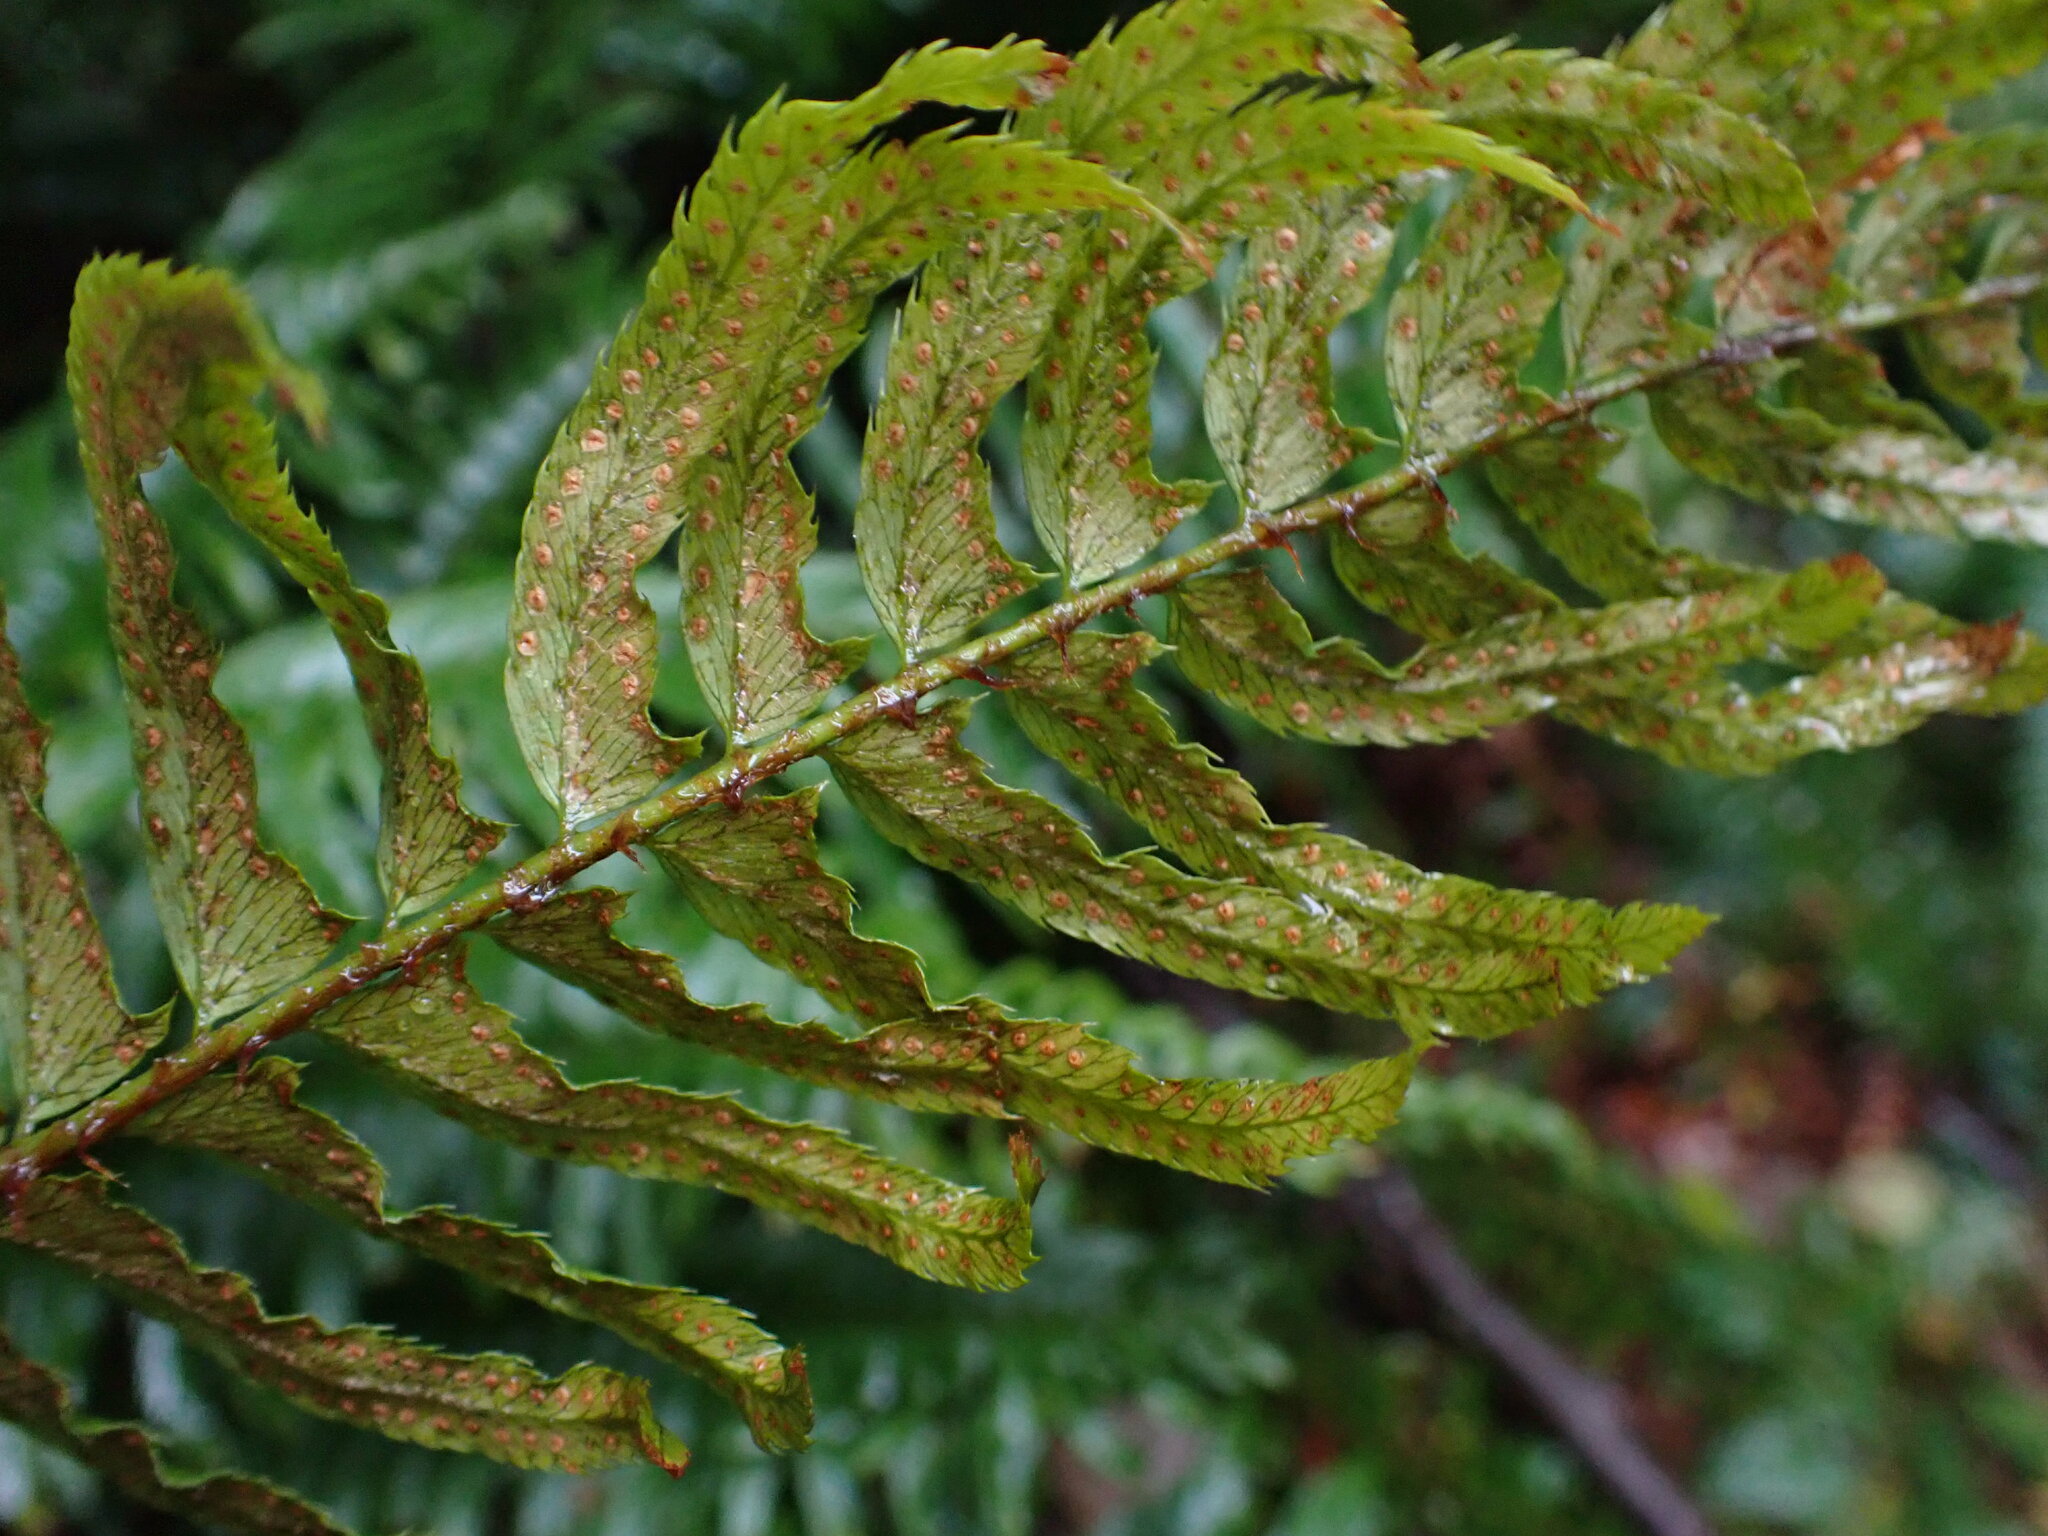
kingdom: Plantae
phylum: Tracheophyta
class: Polypodiopsida
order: Polypodiales
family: Dryopteridaceae
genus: Polystichum
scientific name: Polystichum munitum
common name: Western sword-fern
